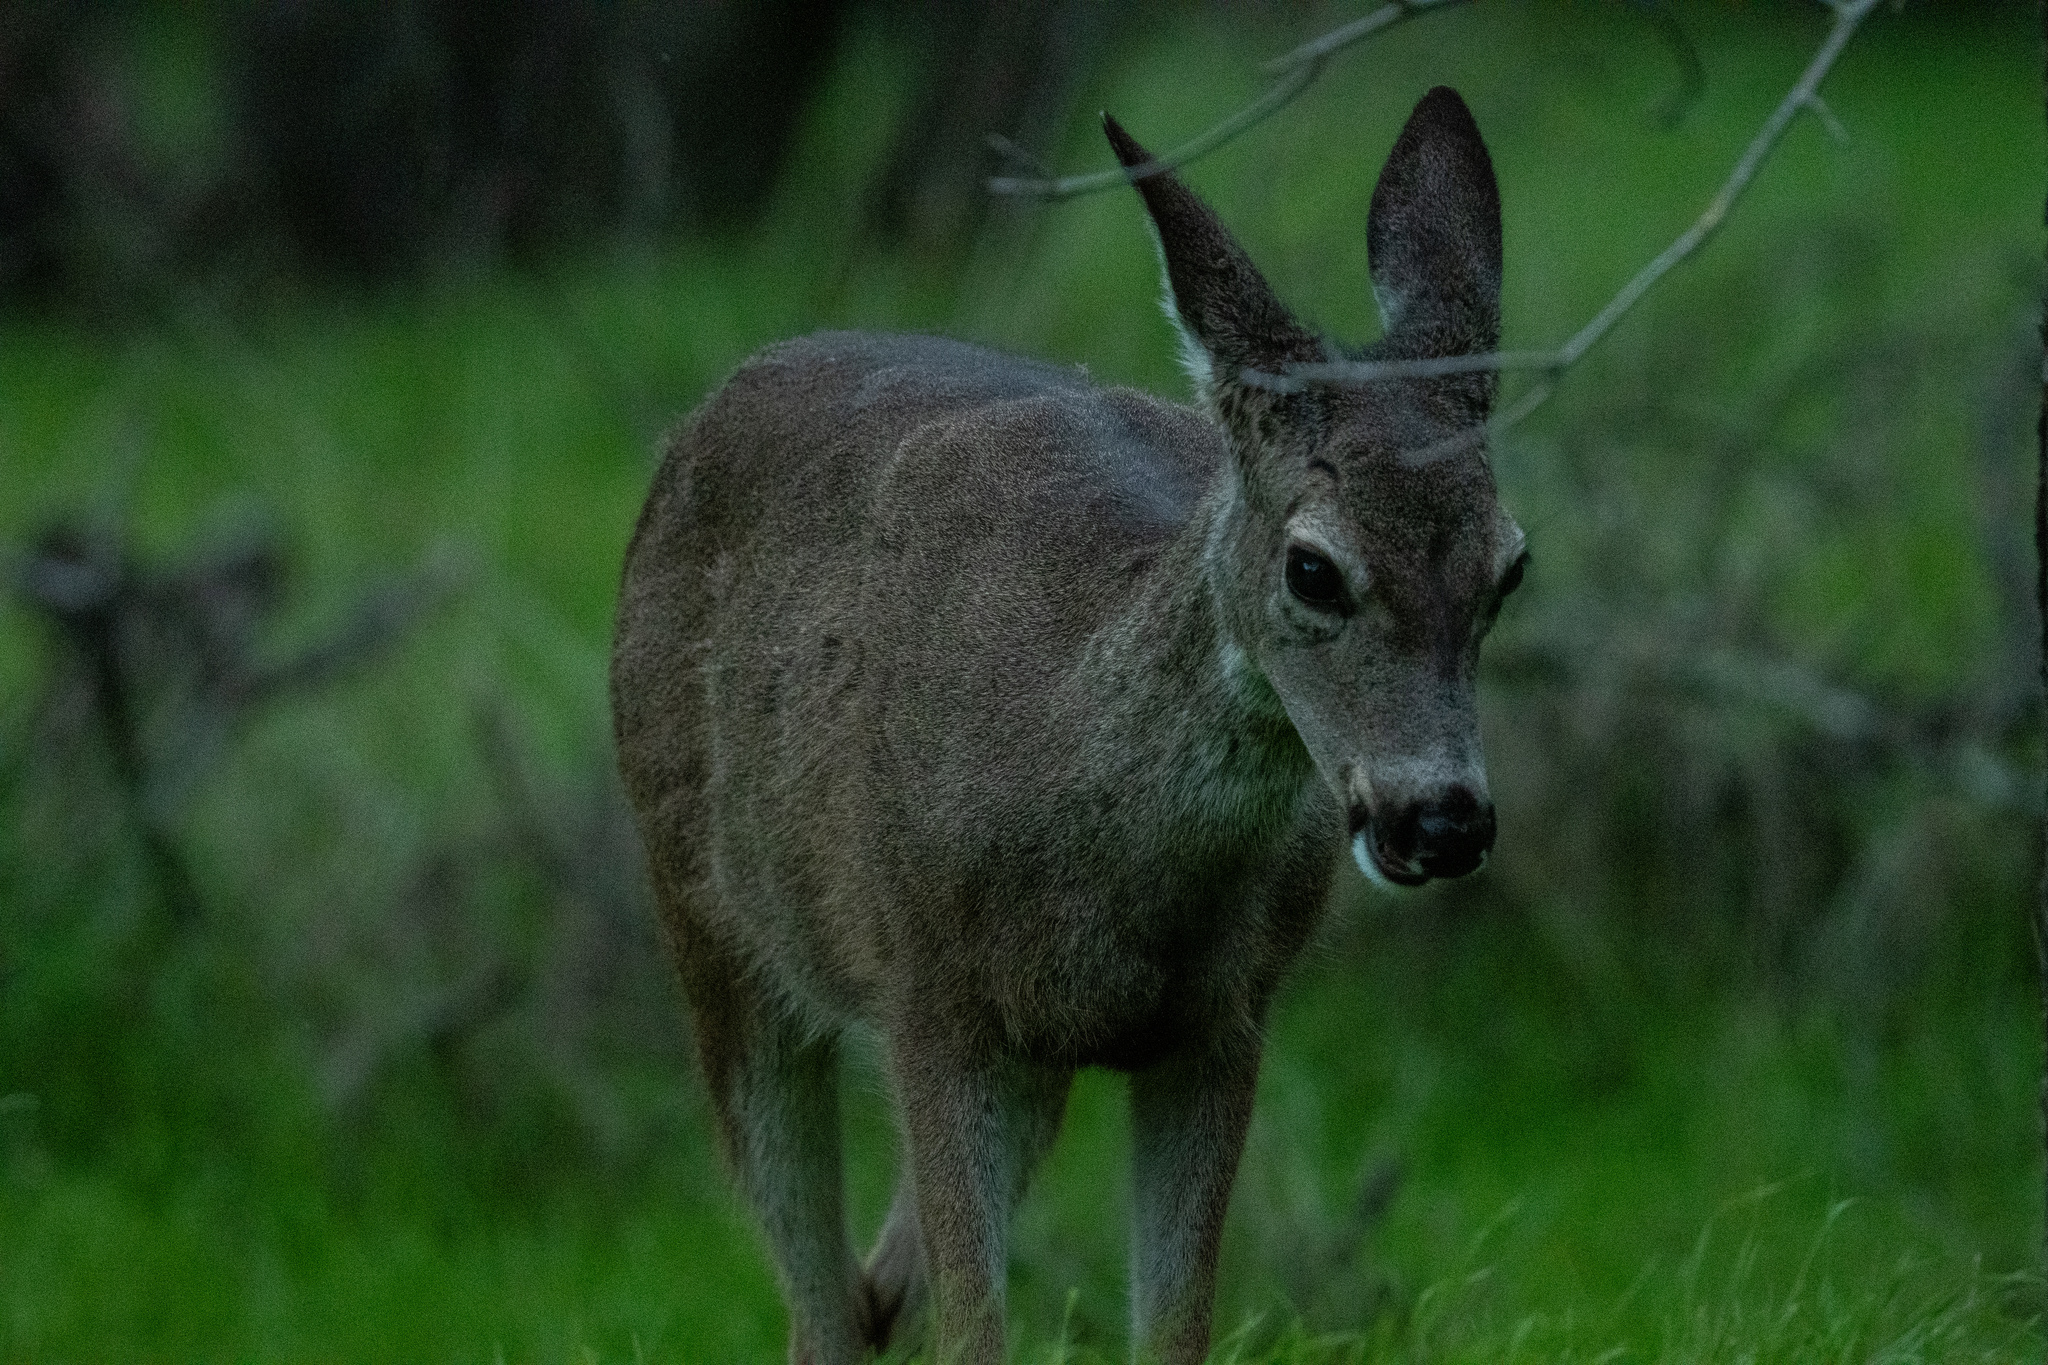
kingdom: Animalia
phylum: Chordata
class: Mammalia
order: Artiodactyla
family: Cervidae
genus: Odocoileus
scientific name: Odocoileus hemionus
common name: Mule deer
